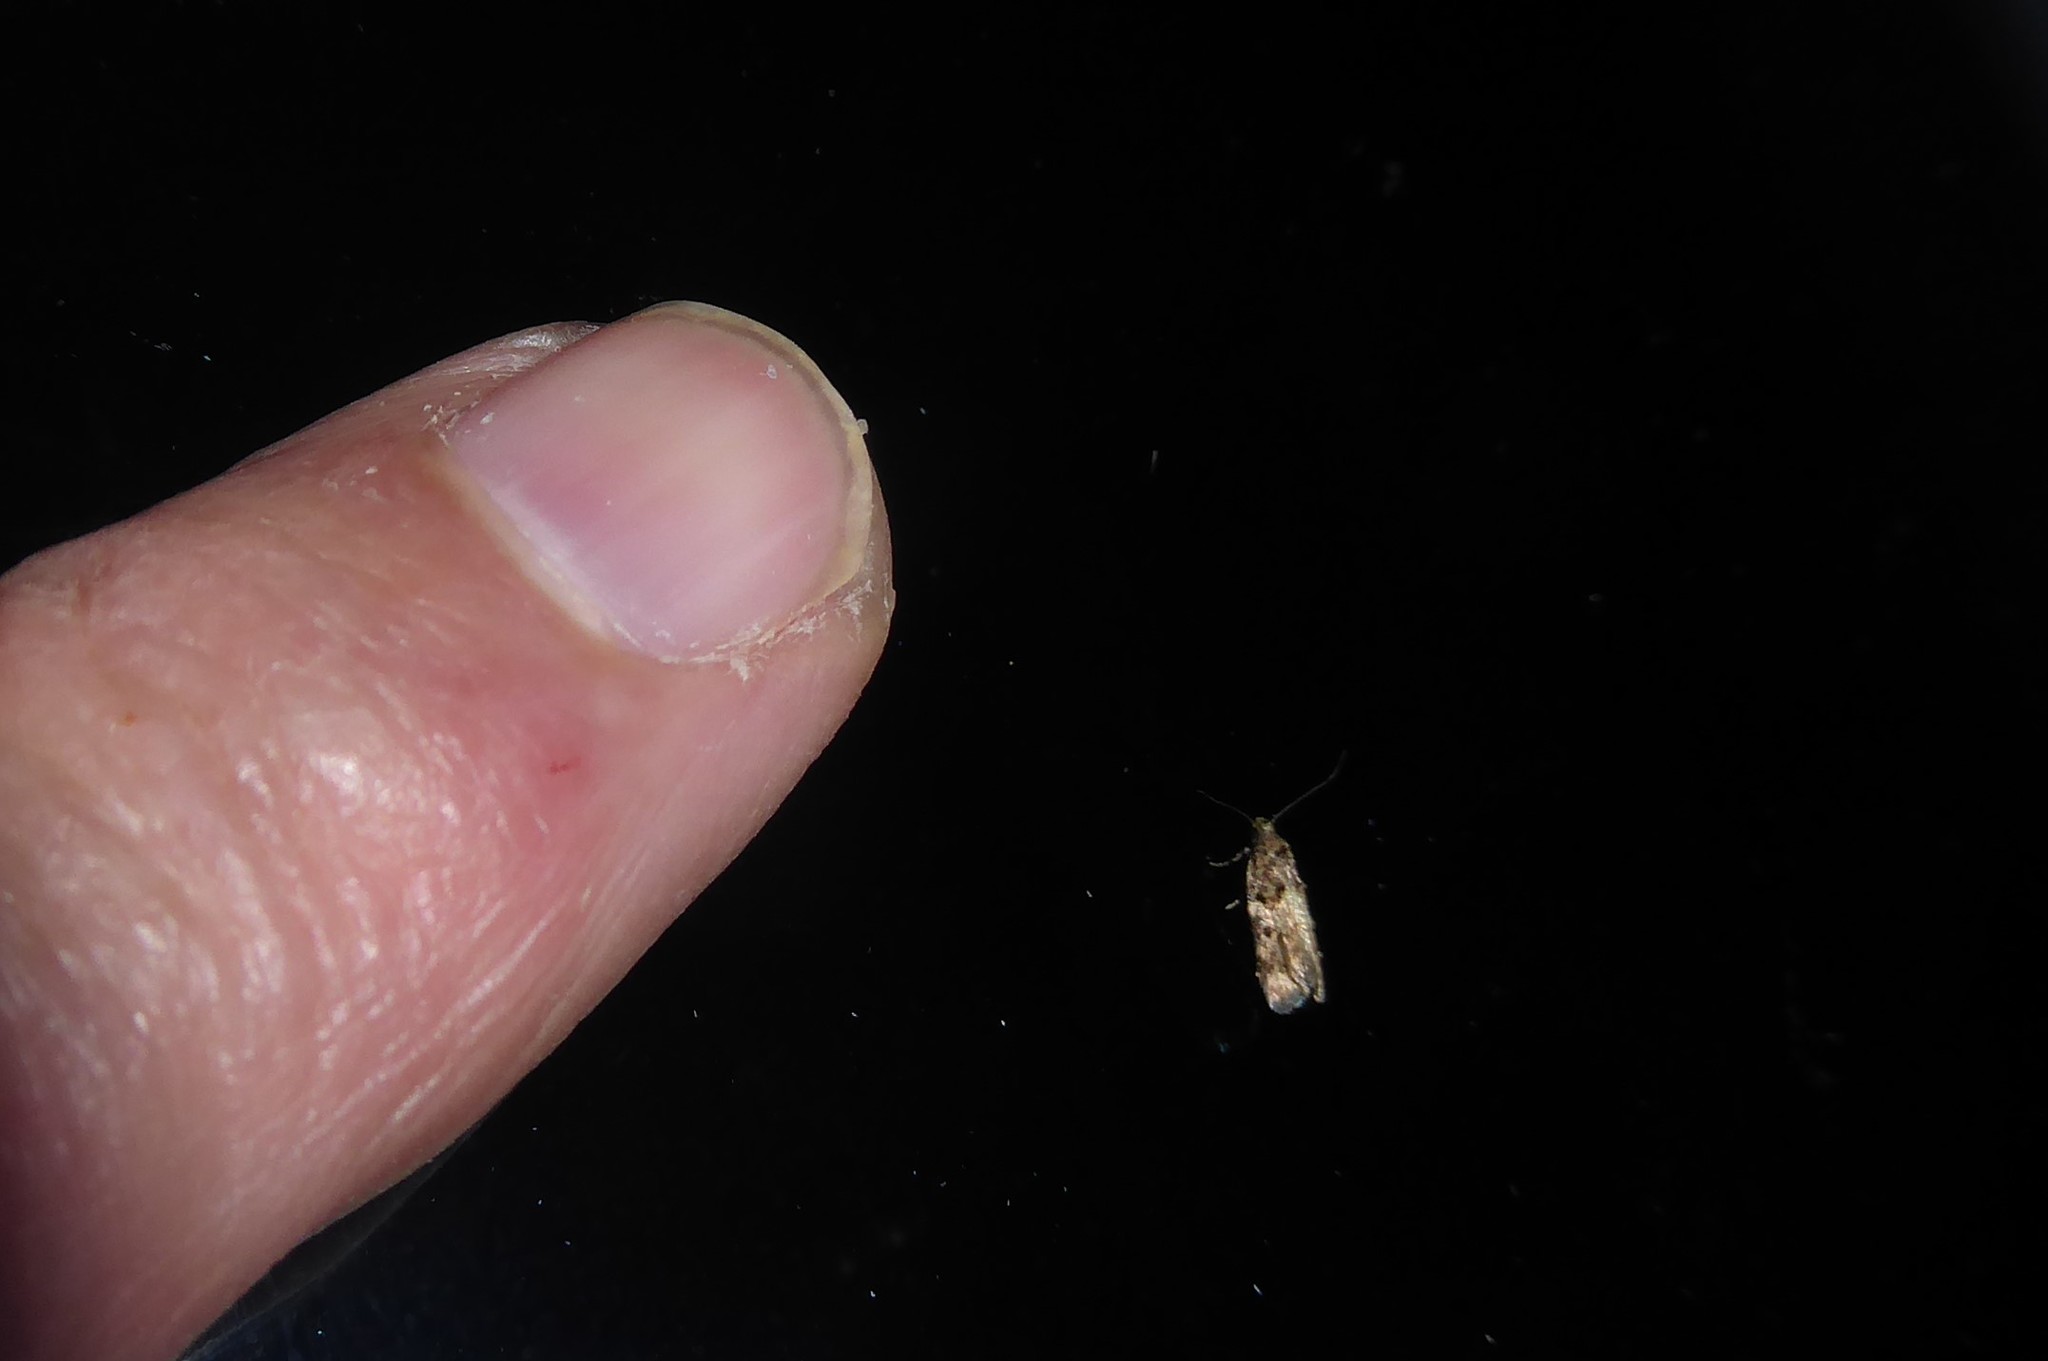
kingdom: Animalia
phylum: Arthropoda
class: Insecta
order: Lepidoptera
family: Oecophoridae
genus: Trachypepla
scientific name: Trachypepla anastrella
